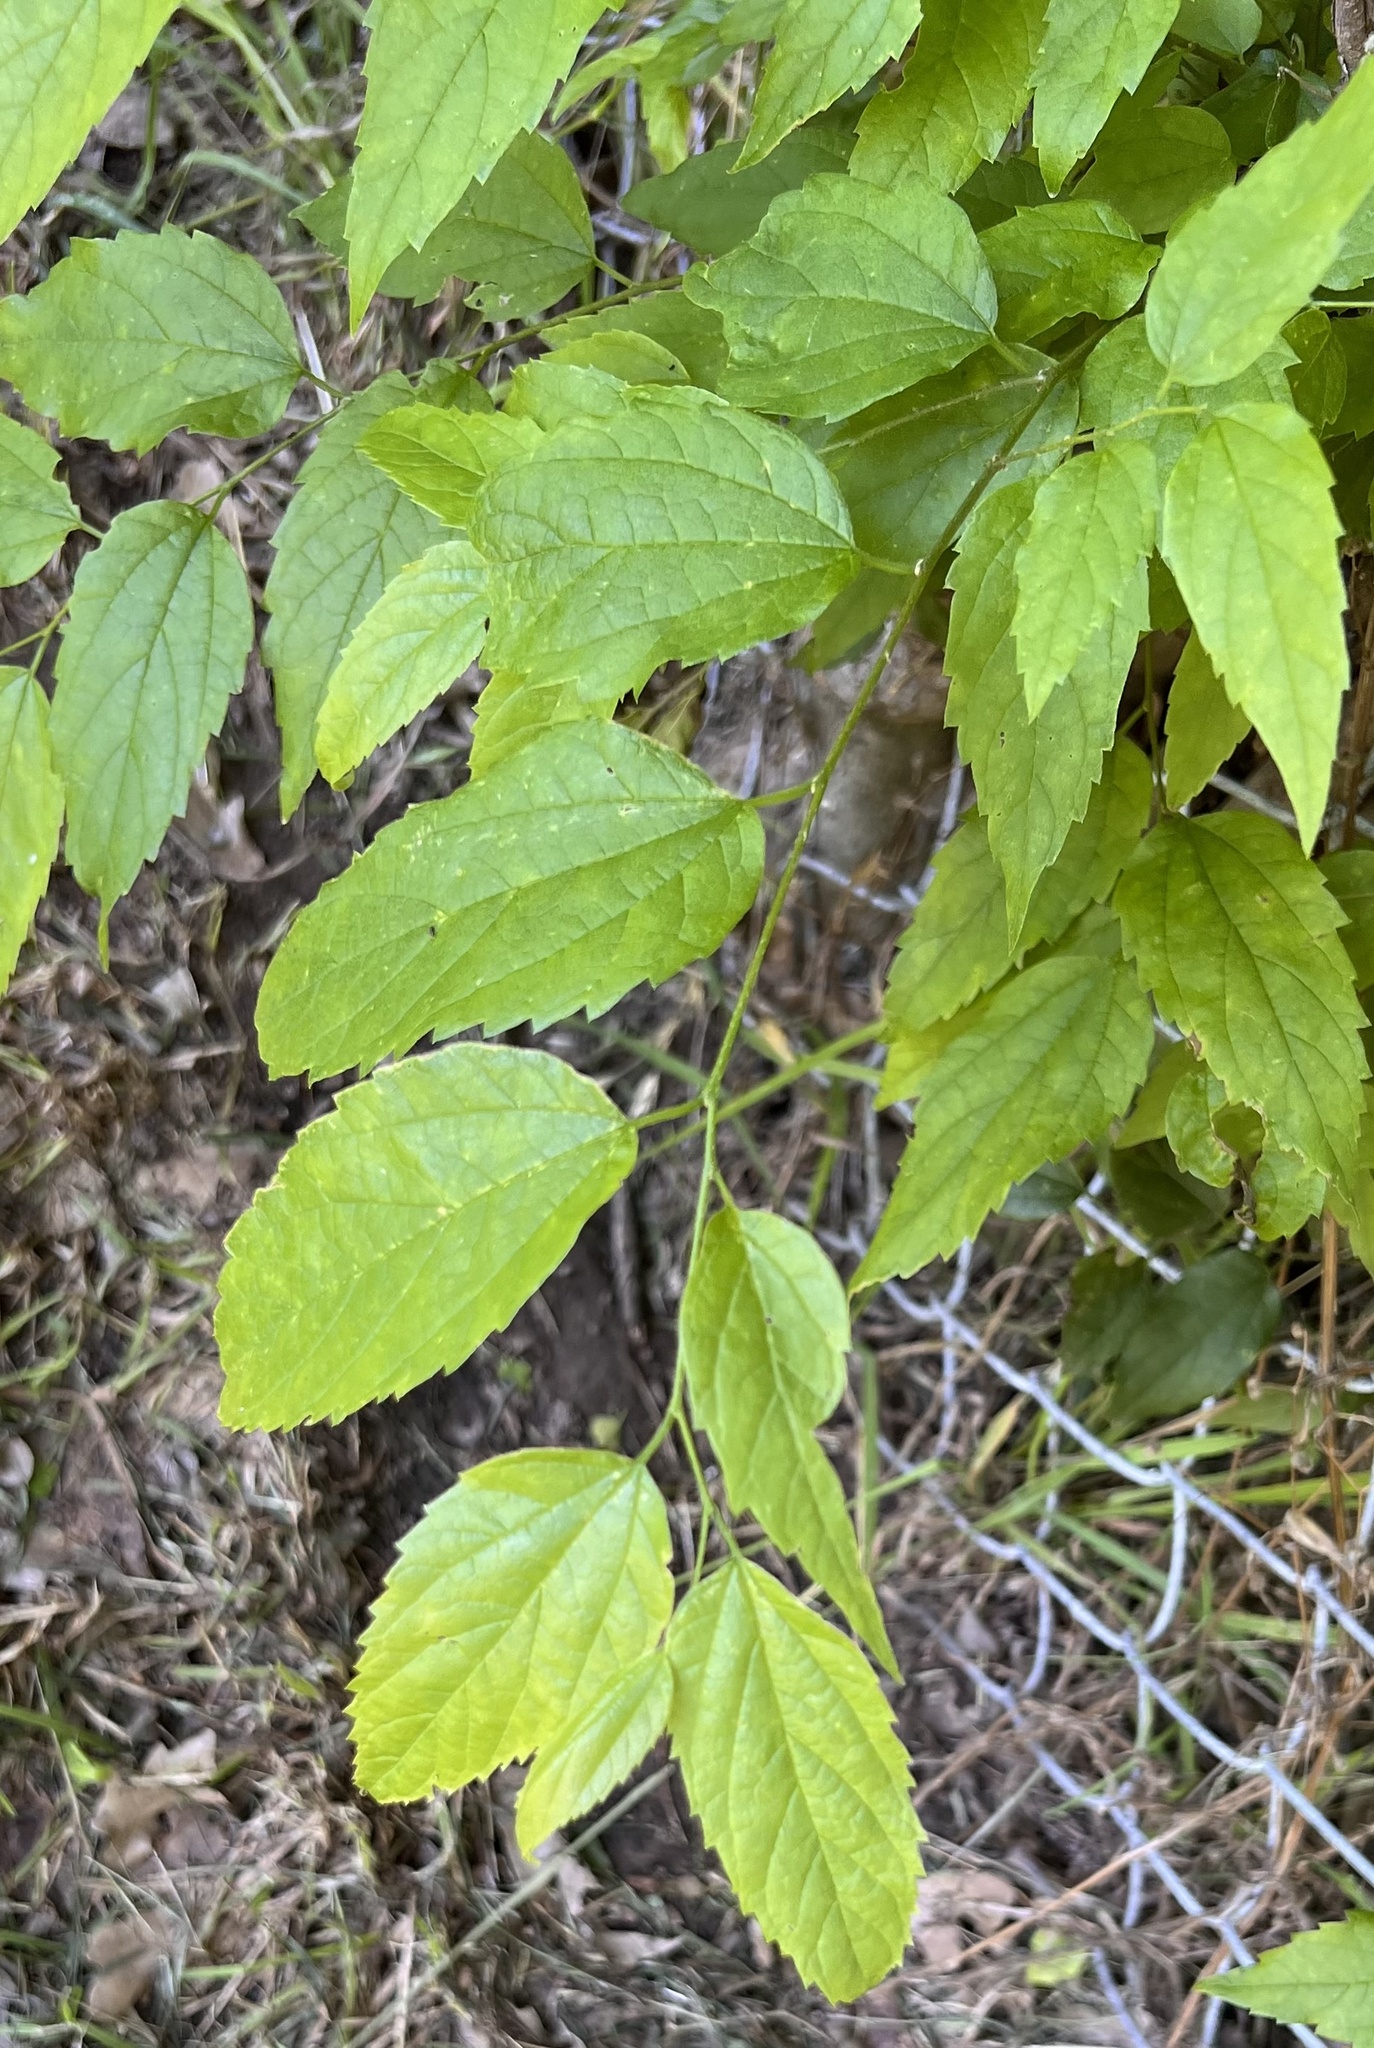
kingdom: Plantae
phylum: Tracheophyta
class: Magnoliopsida
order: Rosales
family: Cannabaceae
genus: Celtis
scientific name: Celtis laevigata
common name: Sugarberry
